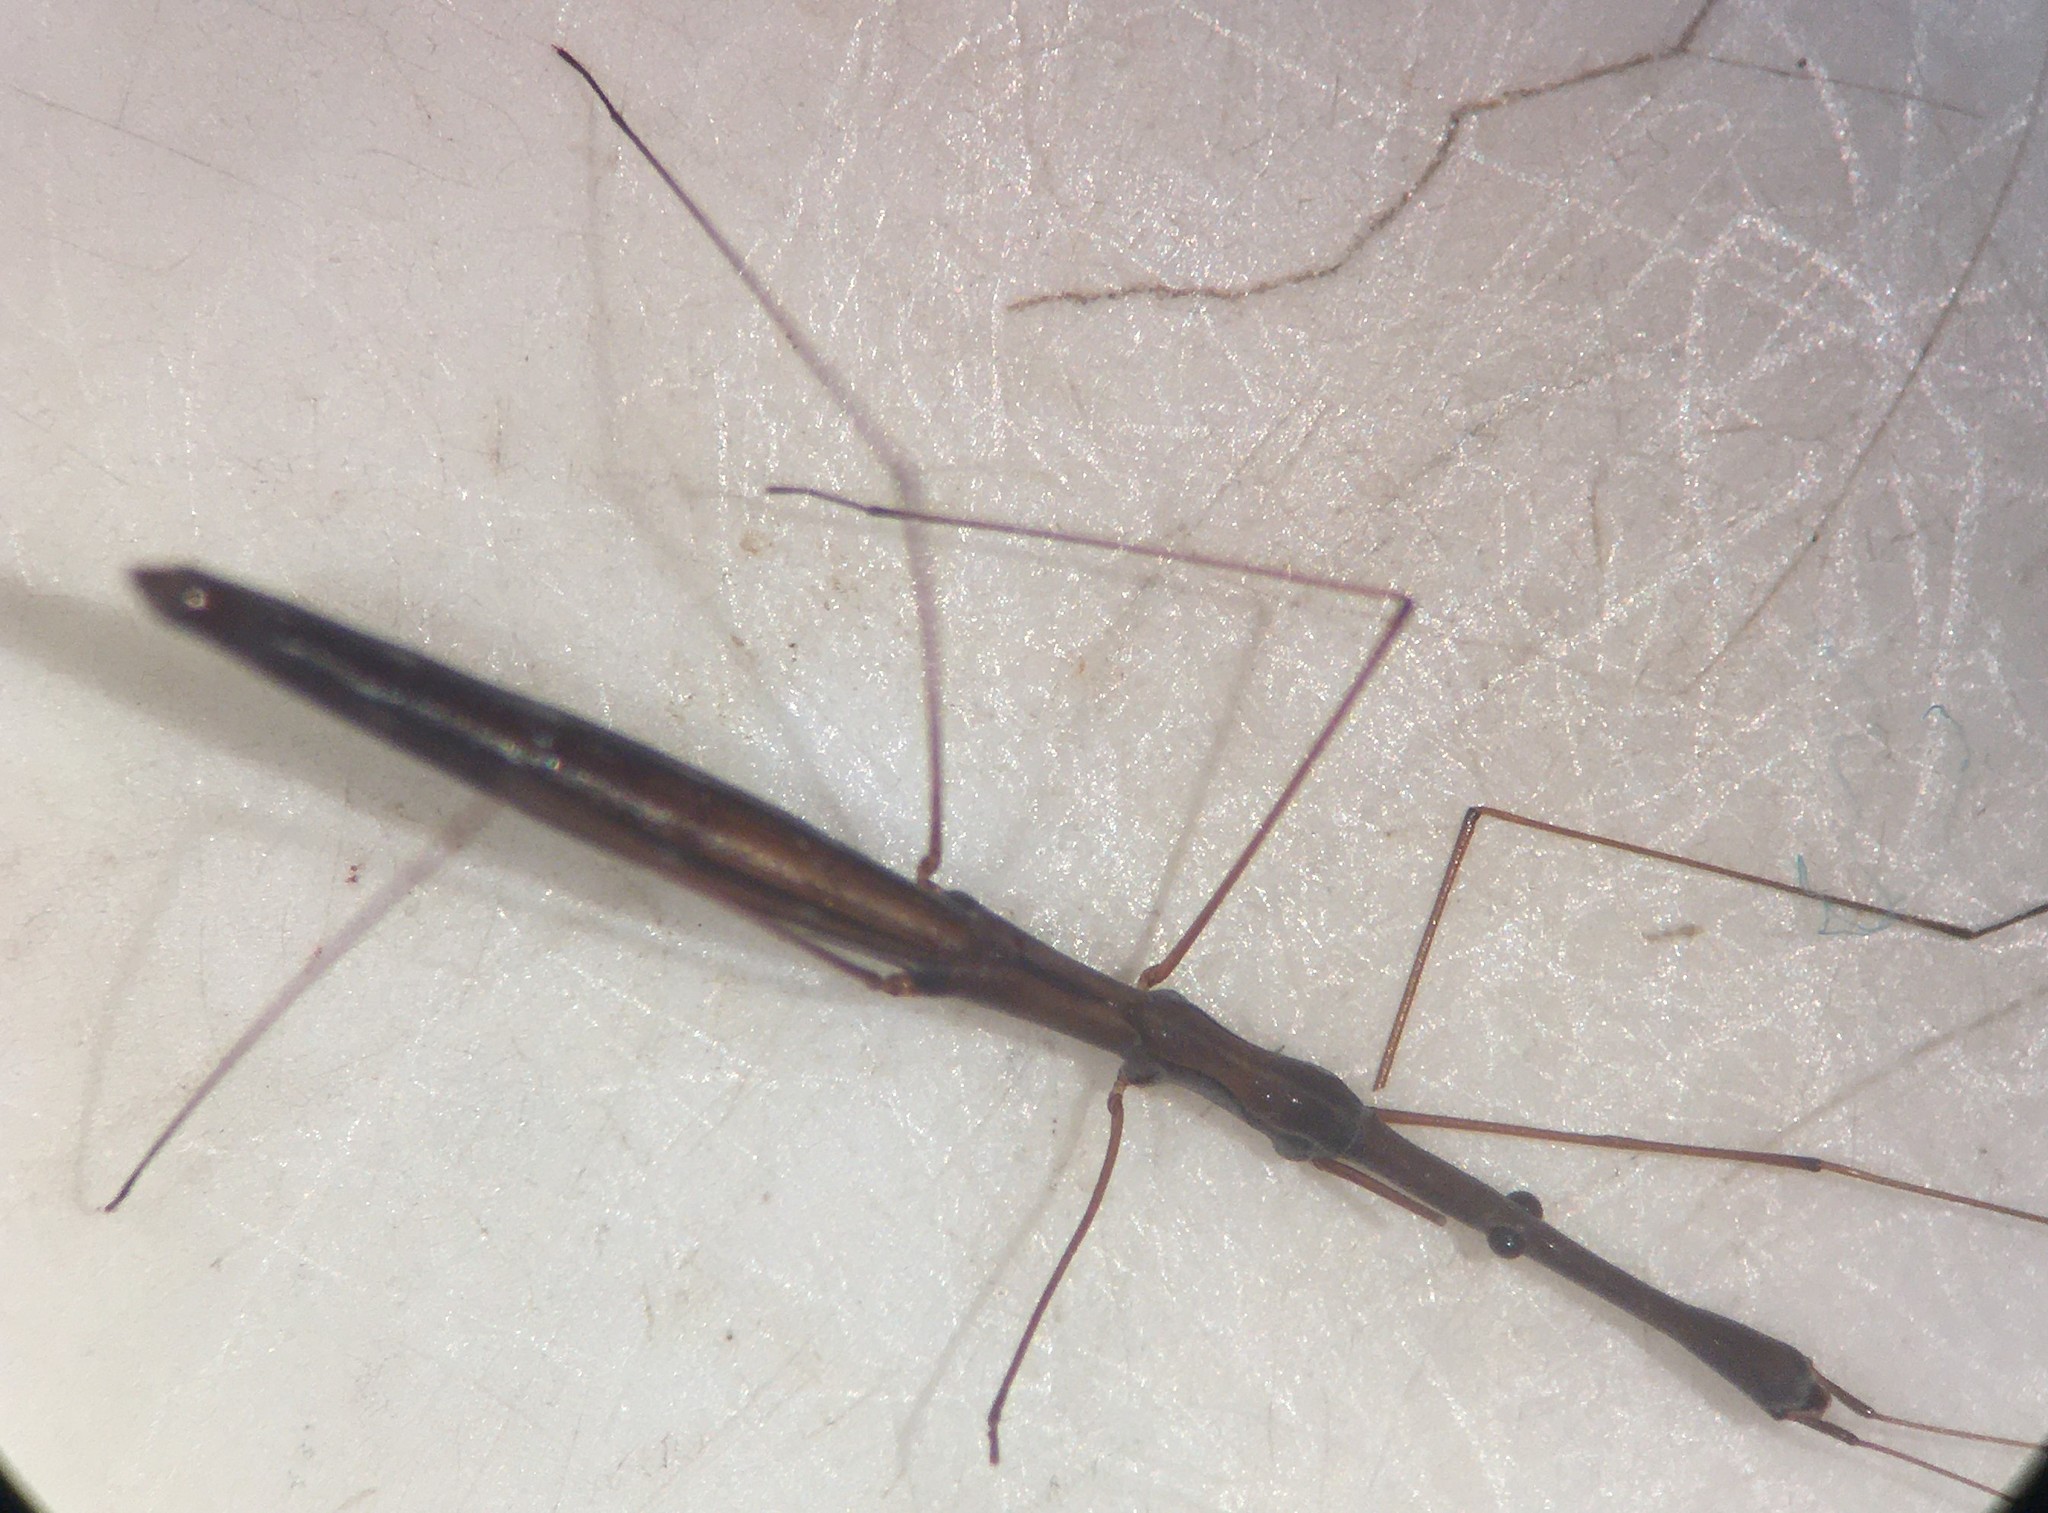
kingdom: Animalia
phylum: Arthropoda
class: Insecta
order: Hemiptera
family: Hydrometridae
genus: Hydrometra
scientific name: Hydrometra australis
